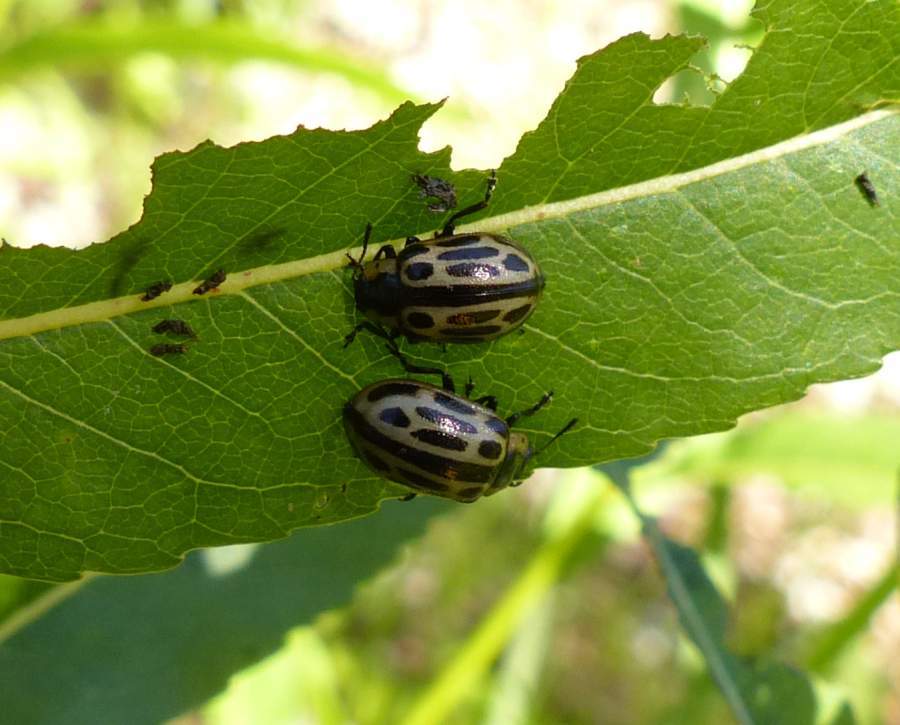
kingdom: Animalia
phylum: Arthropoda
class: Insecta
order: Coleoptera
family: Chrysomelidae
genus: Chrysomela
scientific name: Chrysomela mainensis
